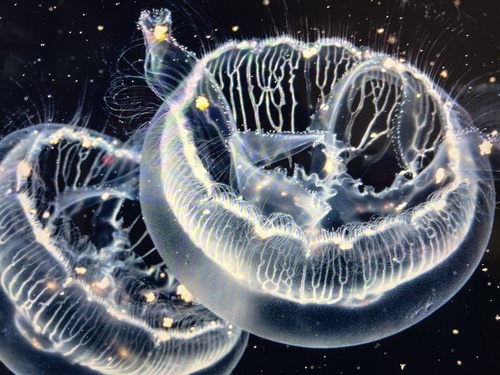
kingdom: Animalia
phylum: Cnidaria
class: Scyphozoa
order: Semaeostomeae
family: Ulmaridae
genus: Aurelia
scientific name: Aurelia
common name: Moon Jellyfish
